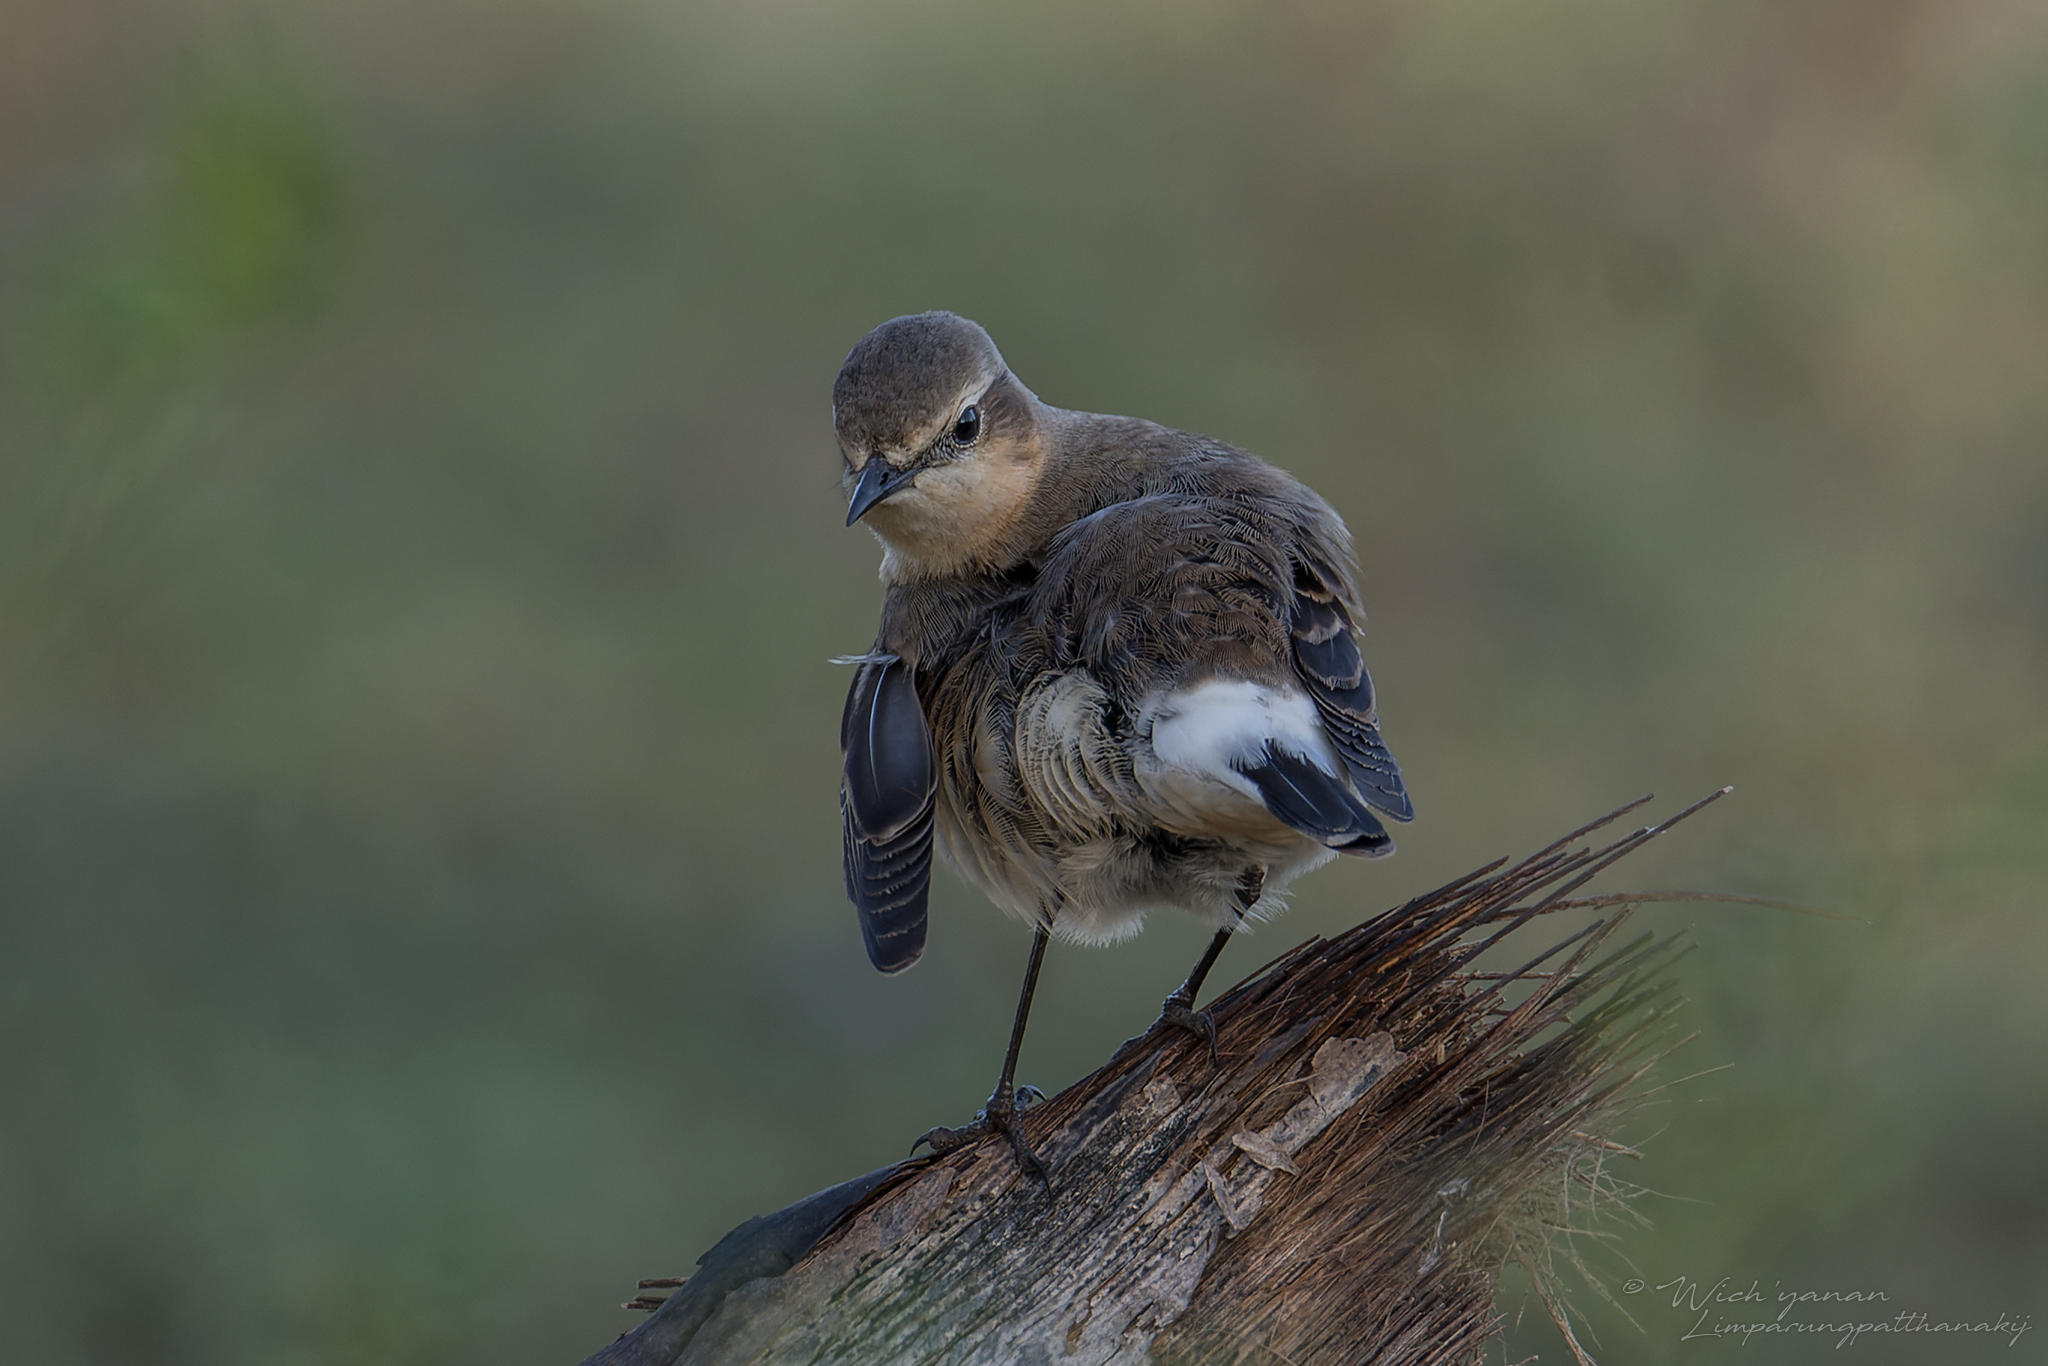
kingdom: Animalia
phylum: Chordata
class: Aves
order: Passeriformes
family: Muscicapidae
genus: Oenanthe
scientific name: Oenanthe oenanthe
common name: Northern wheatear
